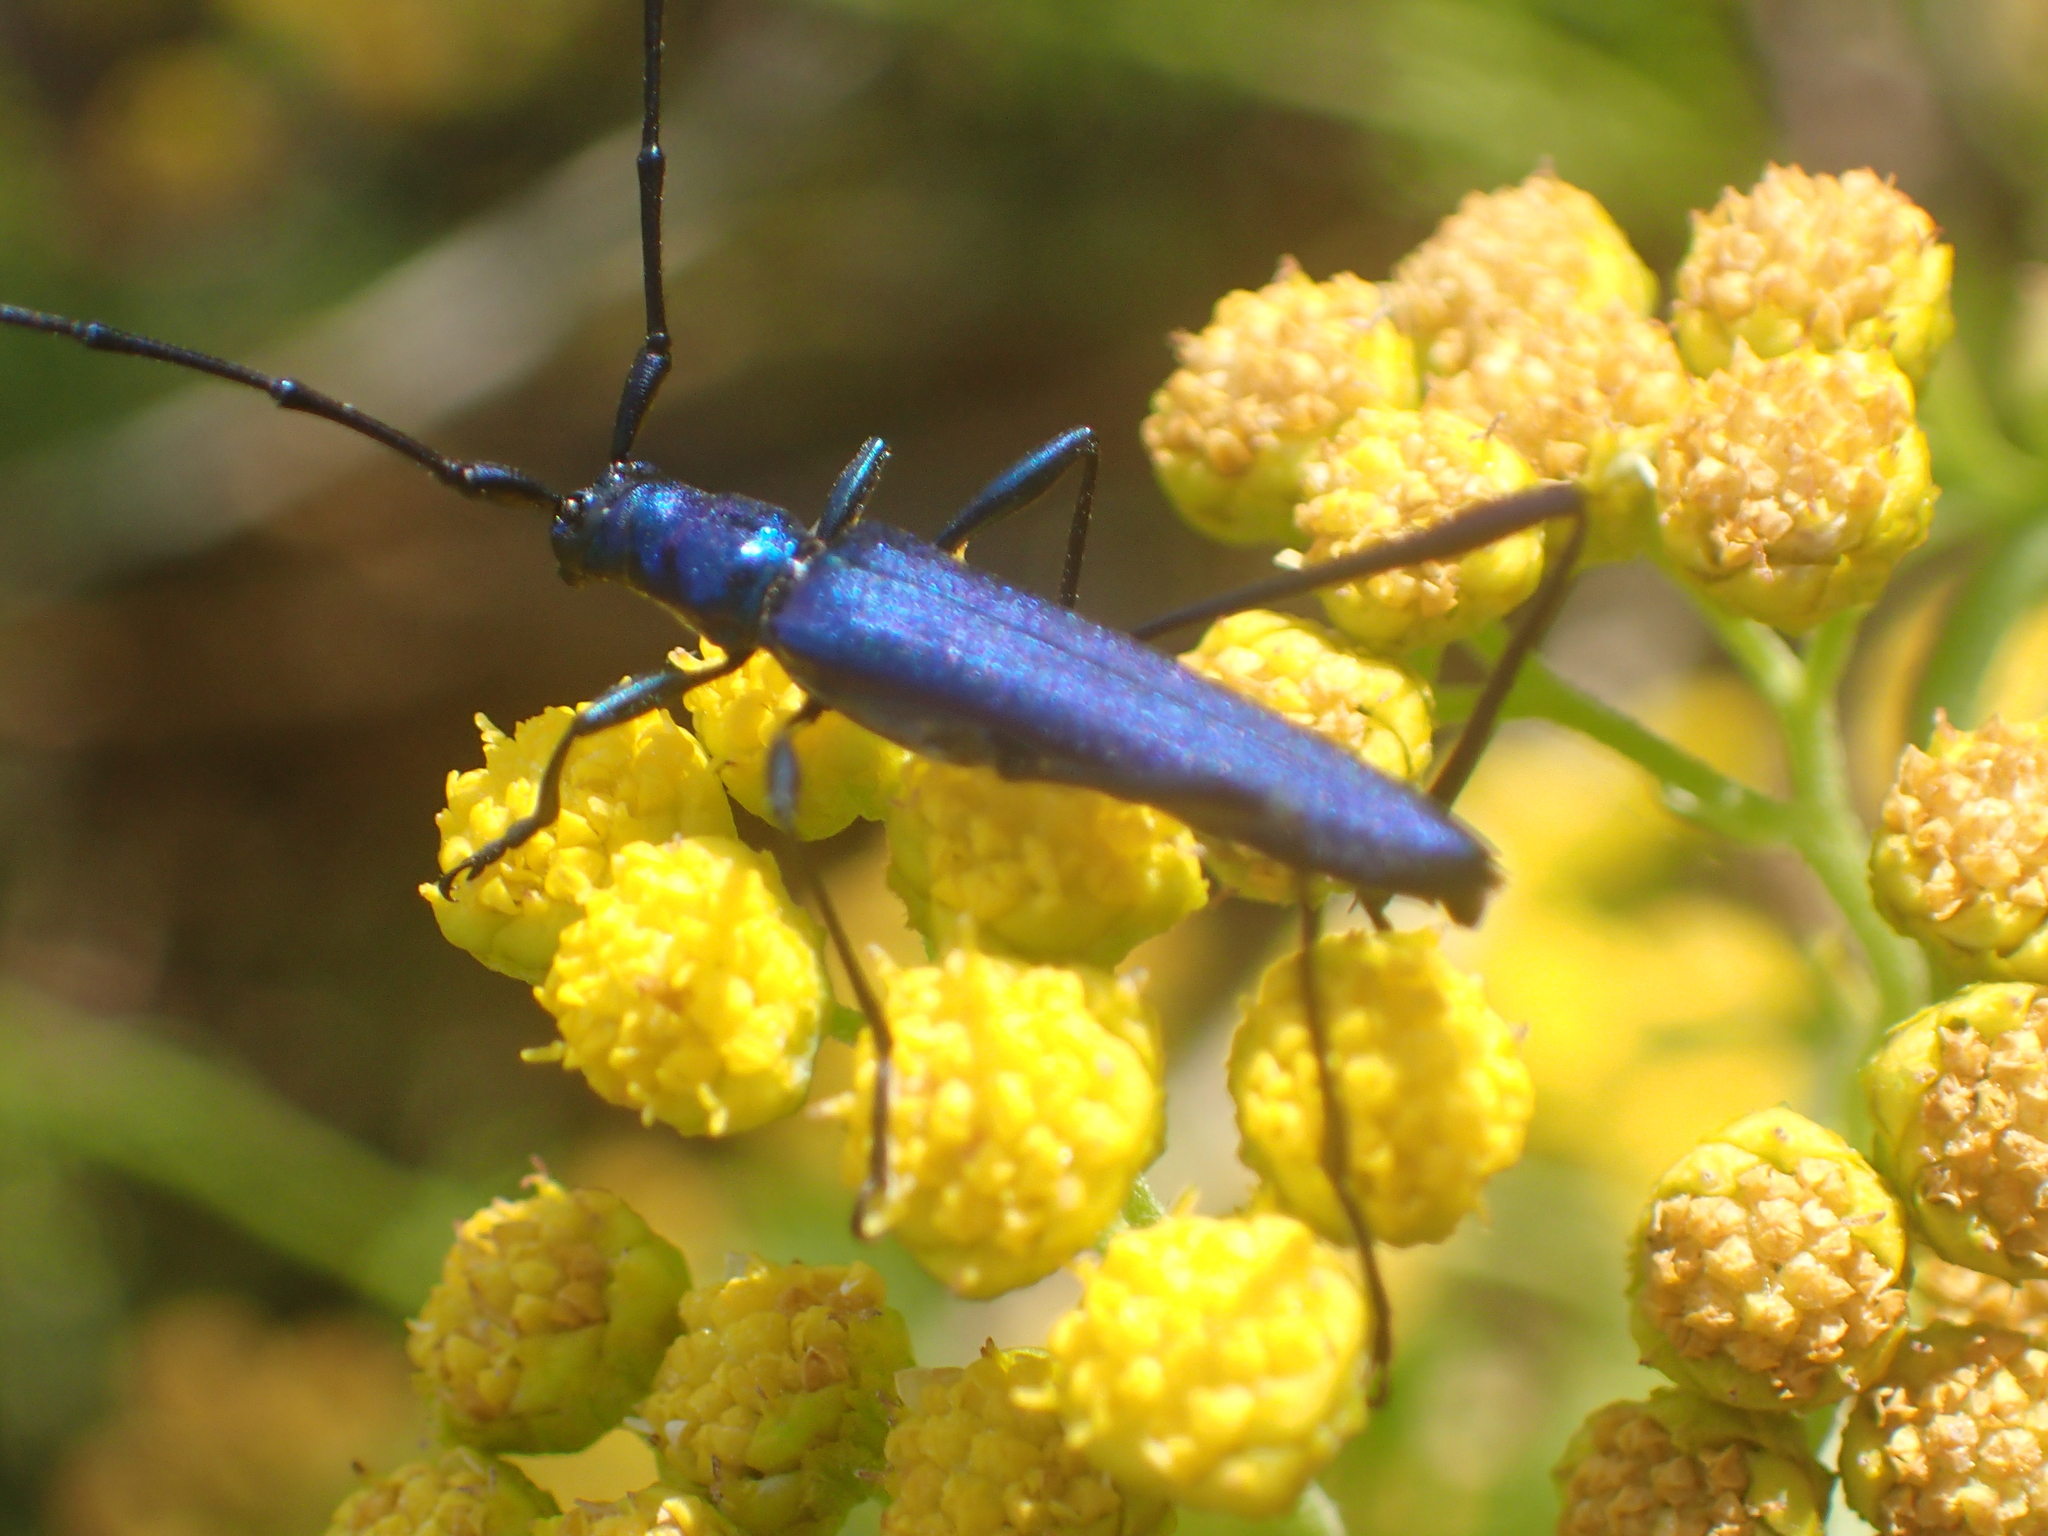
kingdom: Animalia
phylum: Arthropoda
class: Insecta
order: Coleoptera
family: Cerambycidae
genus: Promeces
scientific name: Promeces longipes
